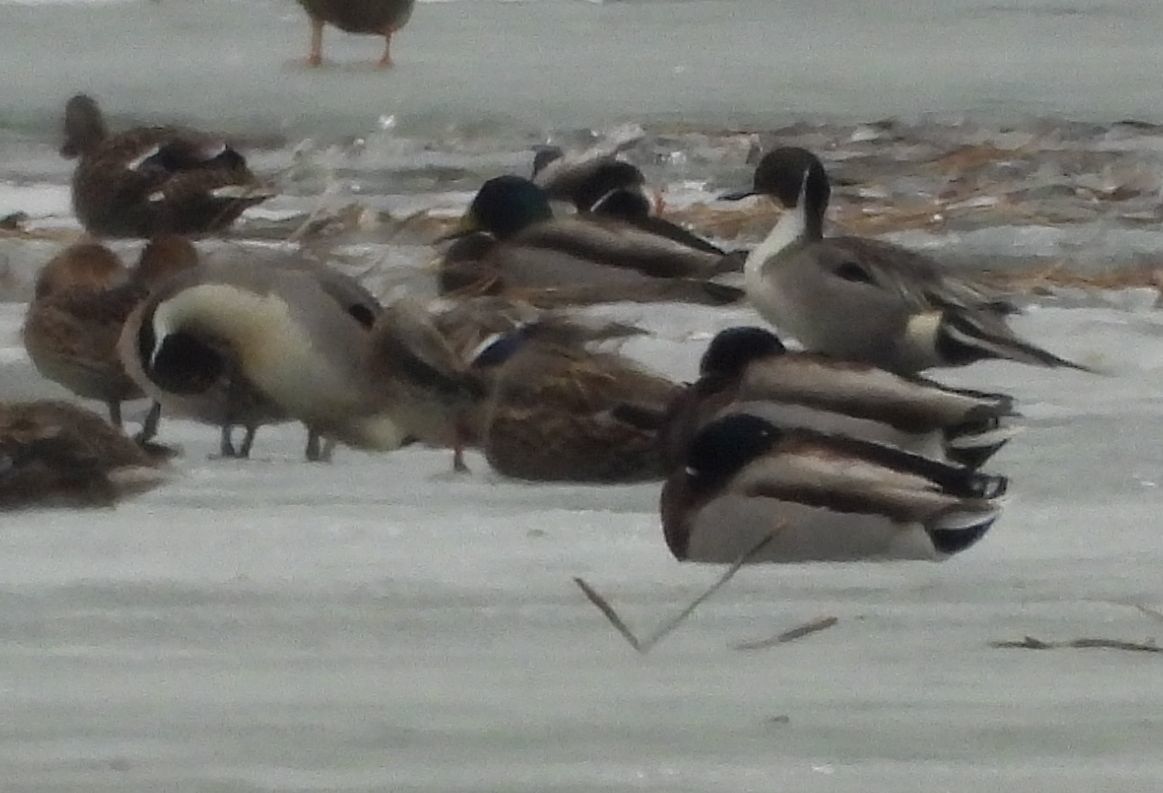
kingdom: Animalia
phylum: Chordata
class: Aves
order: Anseriformes
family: Anatidae
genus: Anas
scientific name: Anas acuta
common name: Northern pintail
